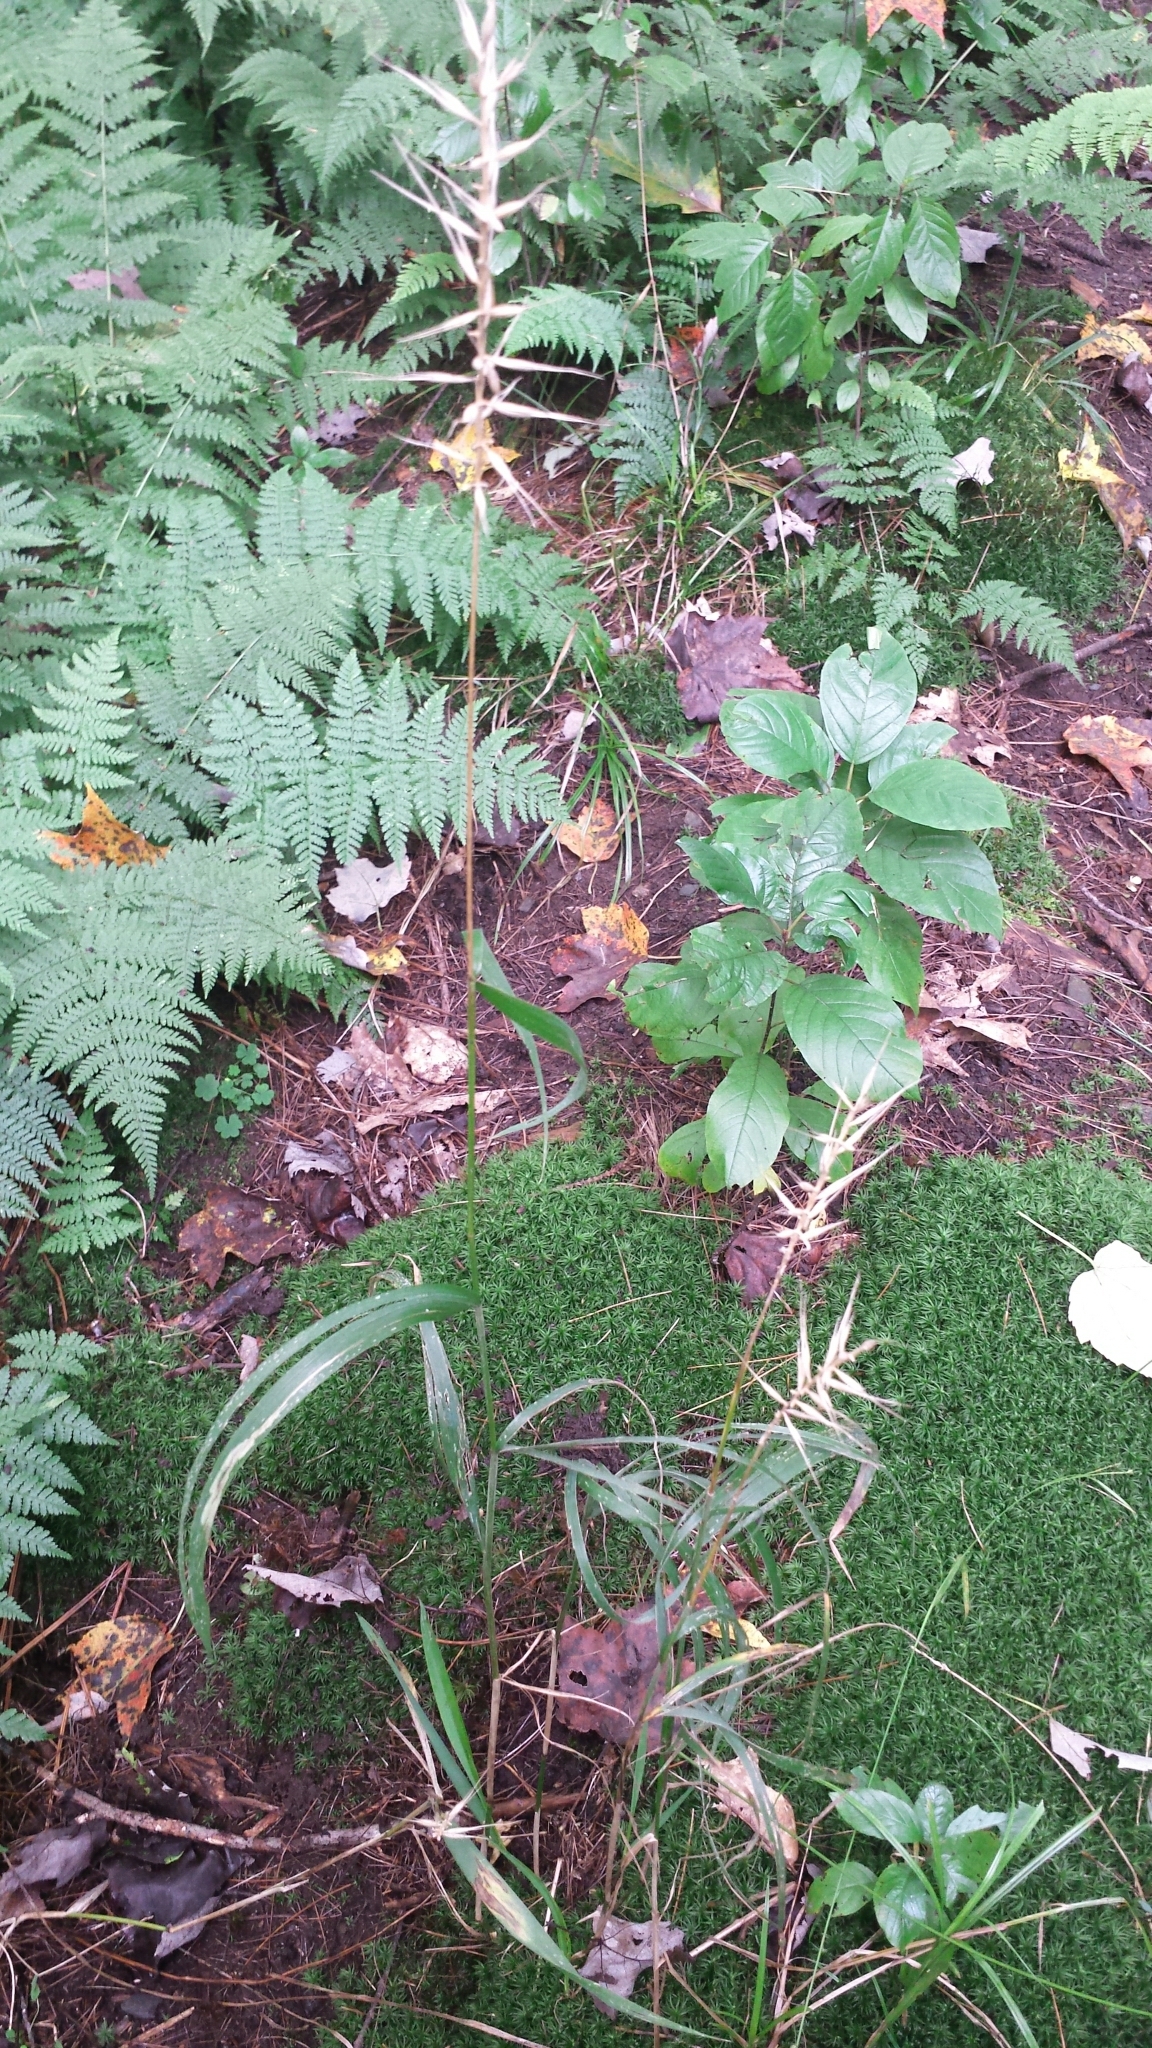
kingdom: Plantae
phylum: Tracheophyta
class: Liliopsida
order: Poales
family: Poaceae
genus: Elymus
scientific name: Elymus hystrix
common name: Bottlebrush grass
